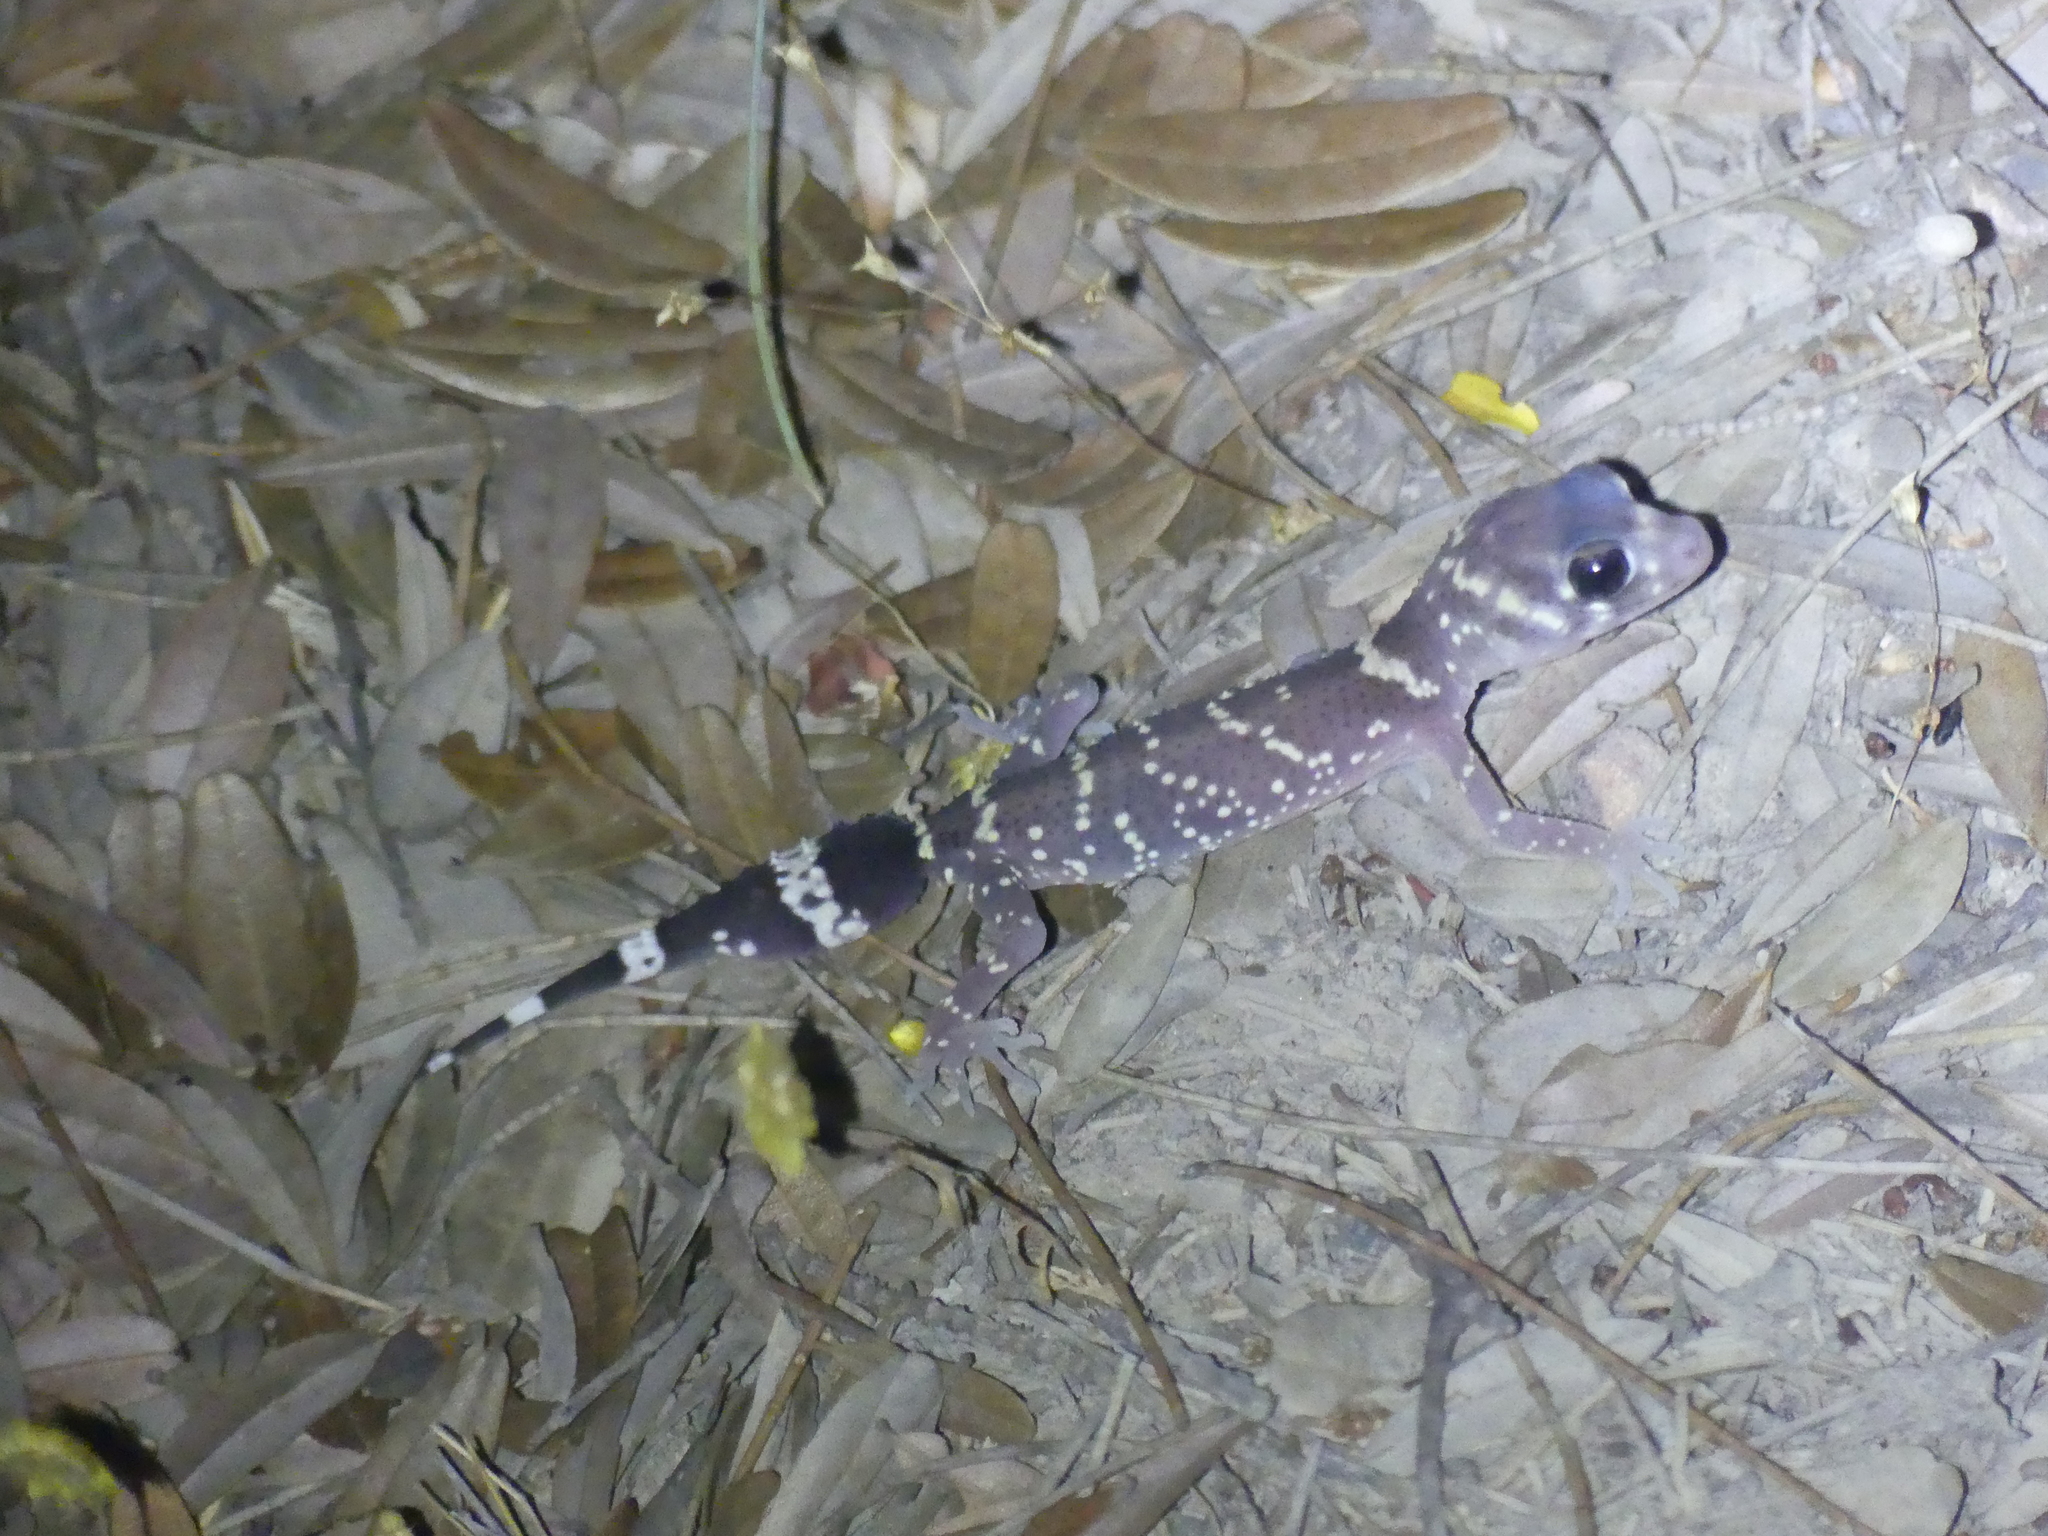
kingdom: Animalia
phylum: Chordata
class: Squamata
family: Carphodactylidae
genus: Underwoodisaurus
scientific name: Underwoodisaurus milii
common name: Barking gecko
